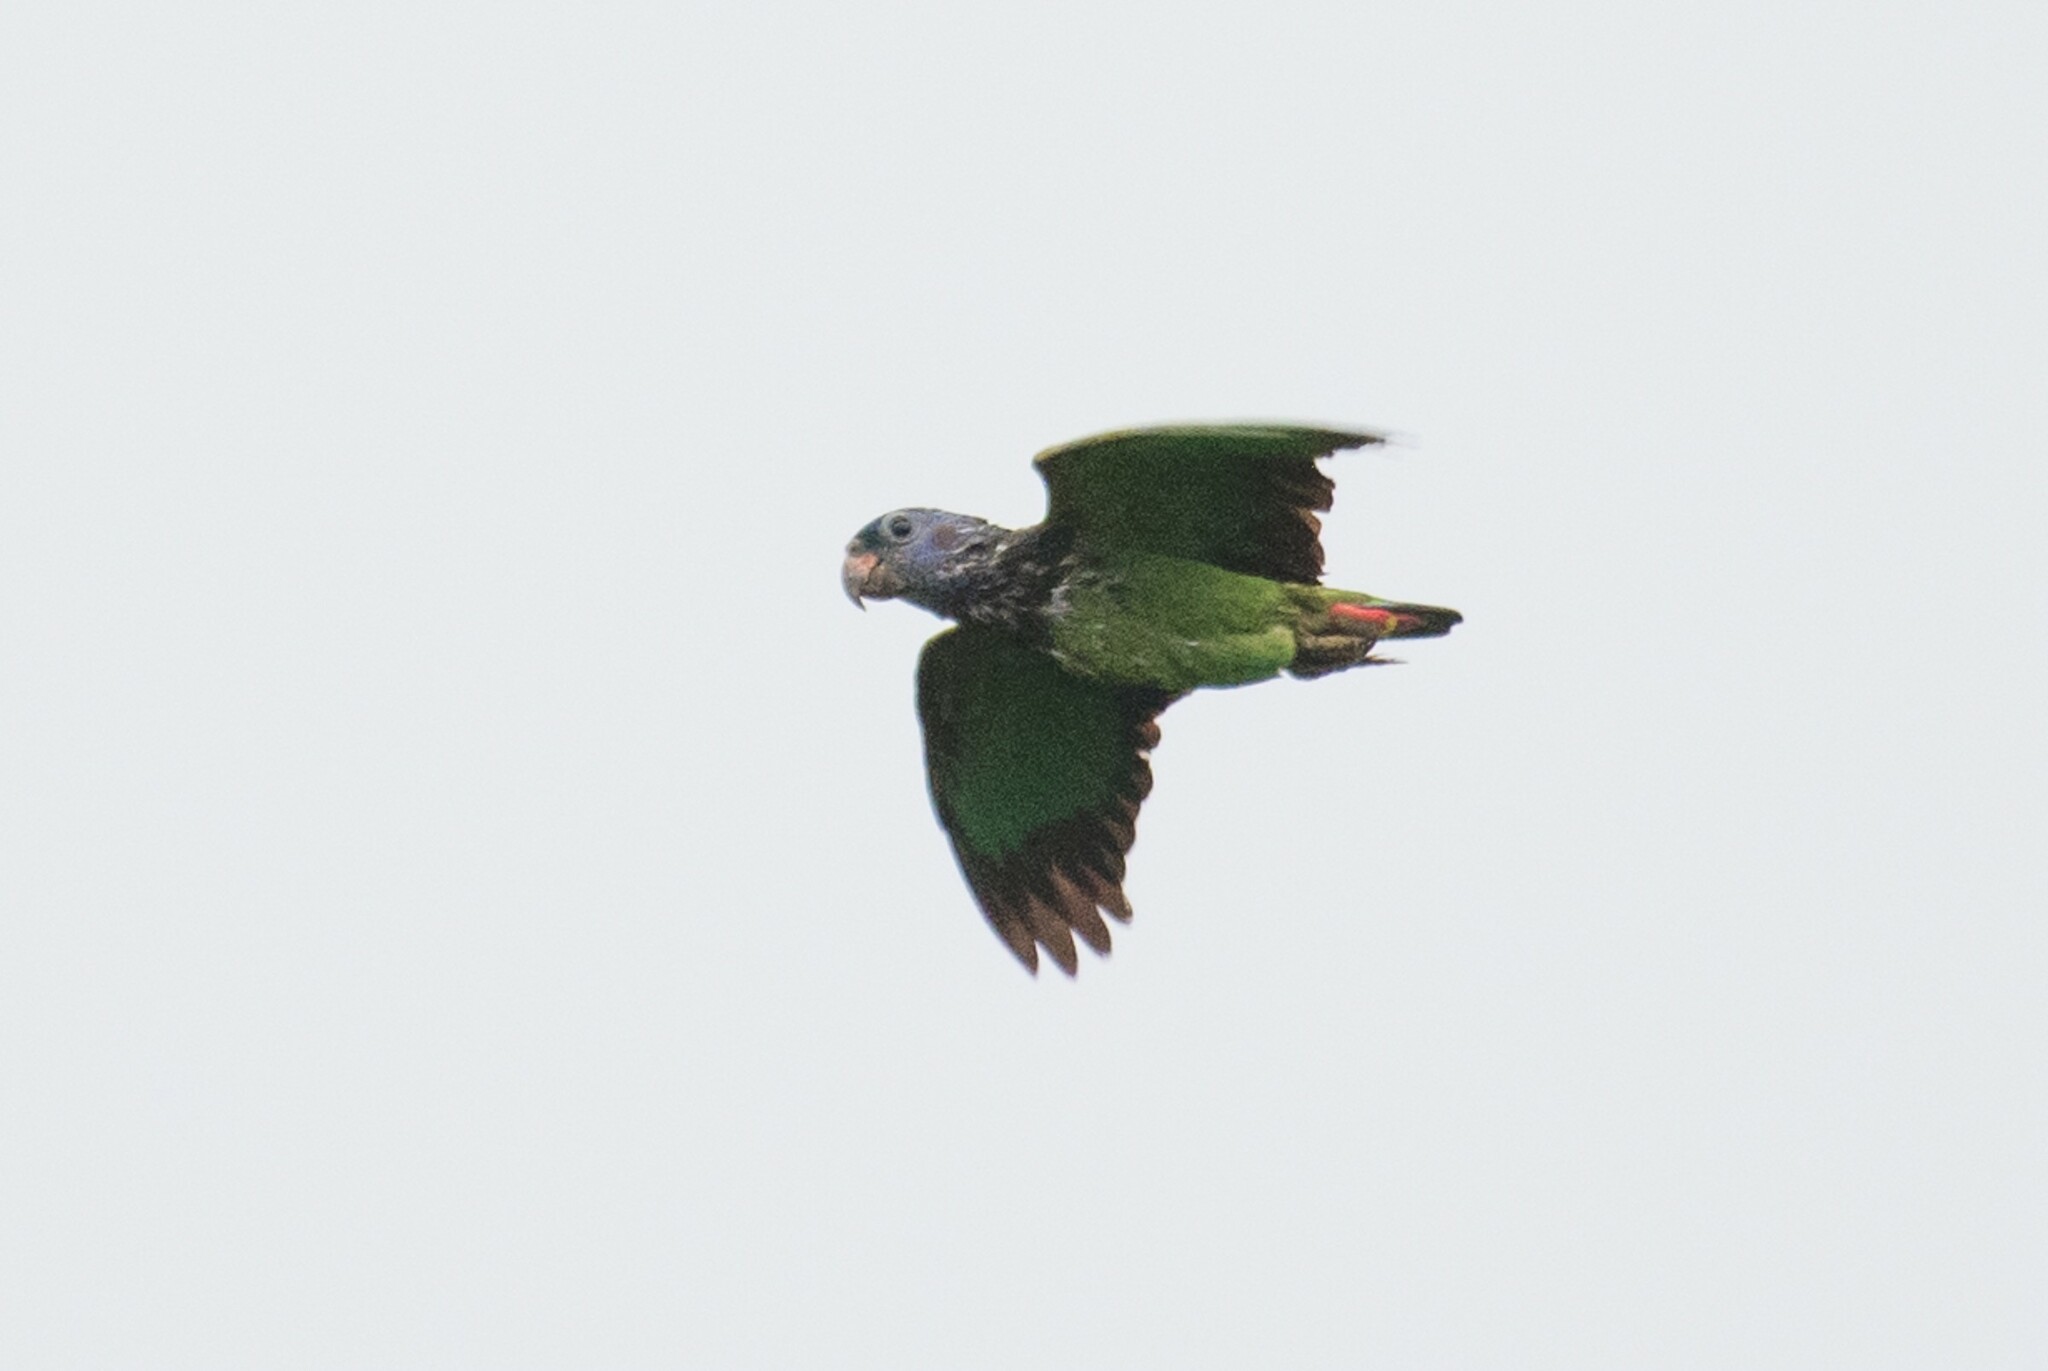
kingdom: Animalia
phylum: Chordata
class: Aves
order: Psittaciformes
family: Psittacidae
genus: Pionus
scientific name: Pionus menstruus
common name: Blue-headed parrot
